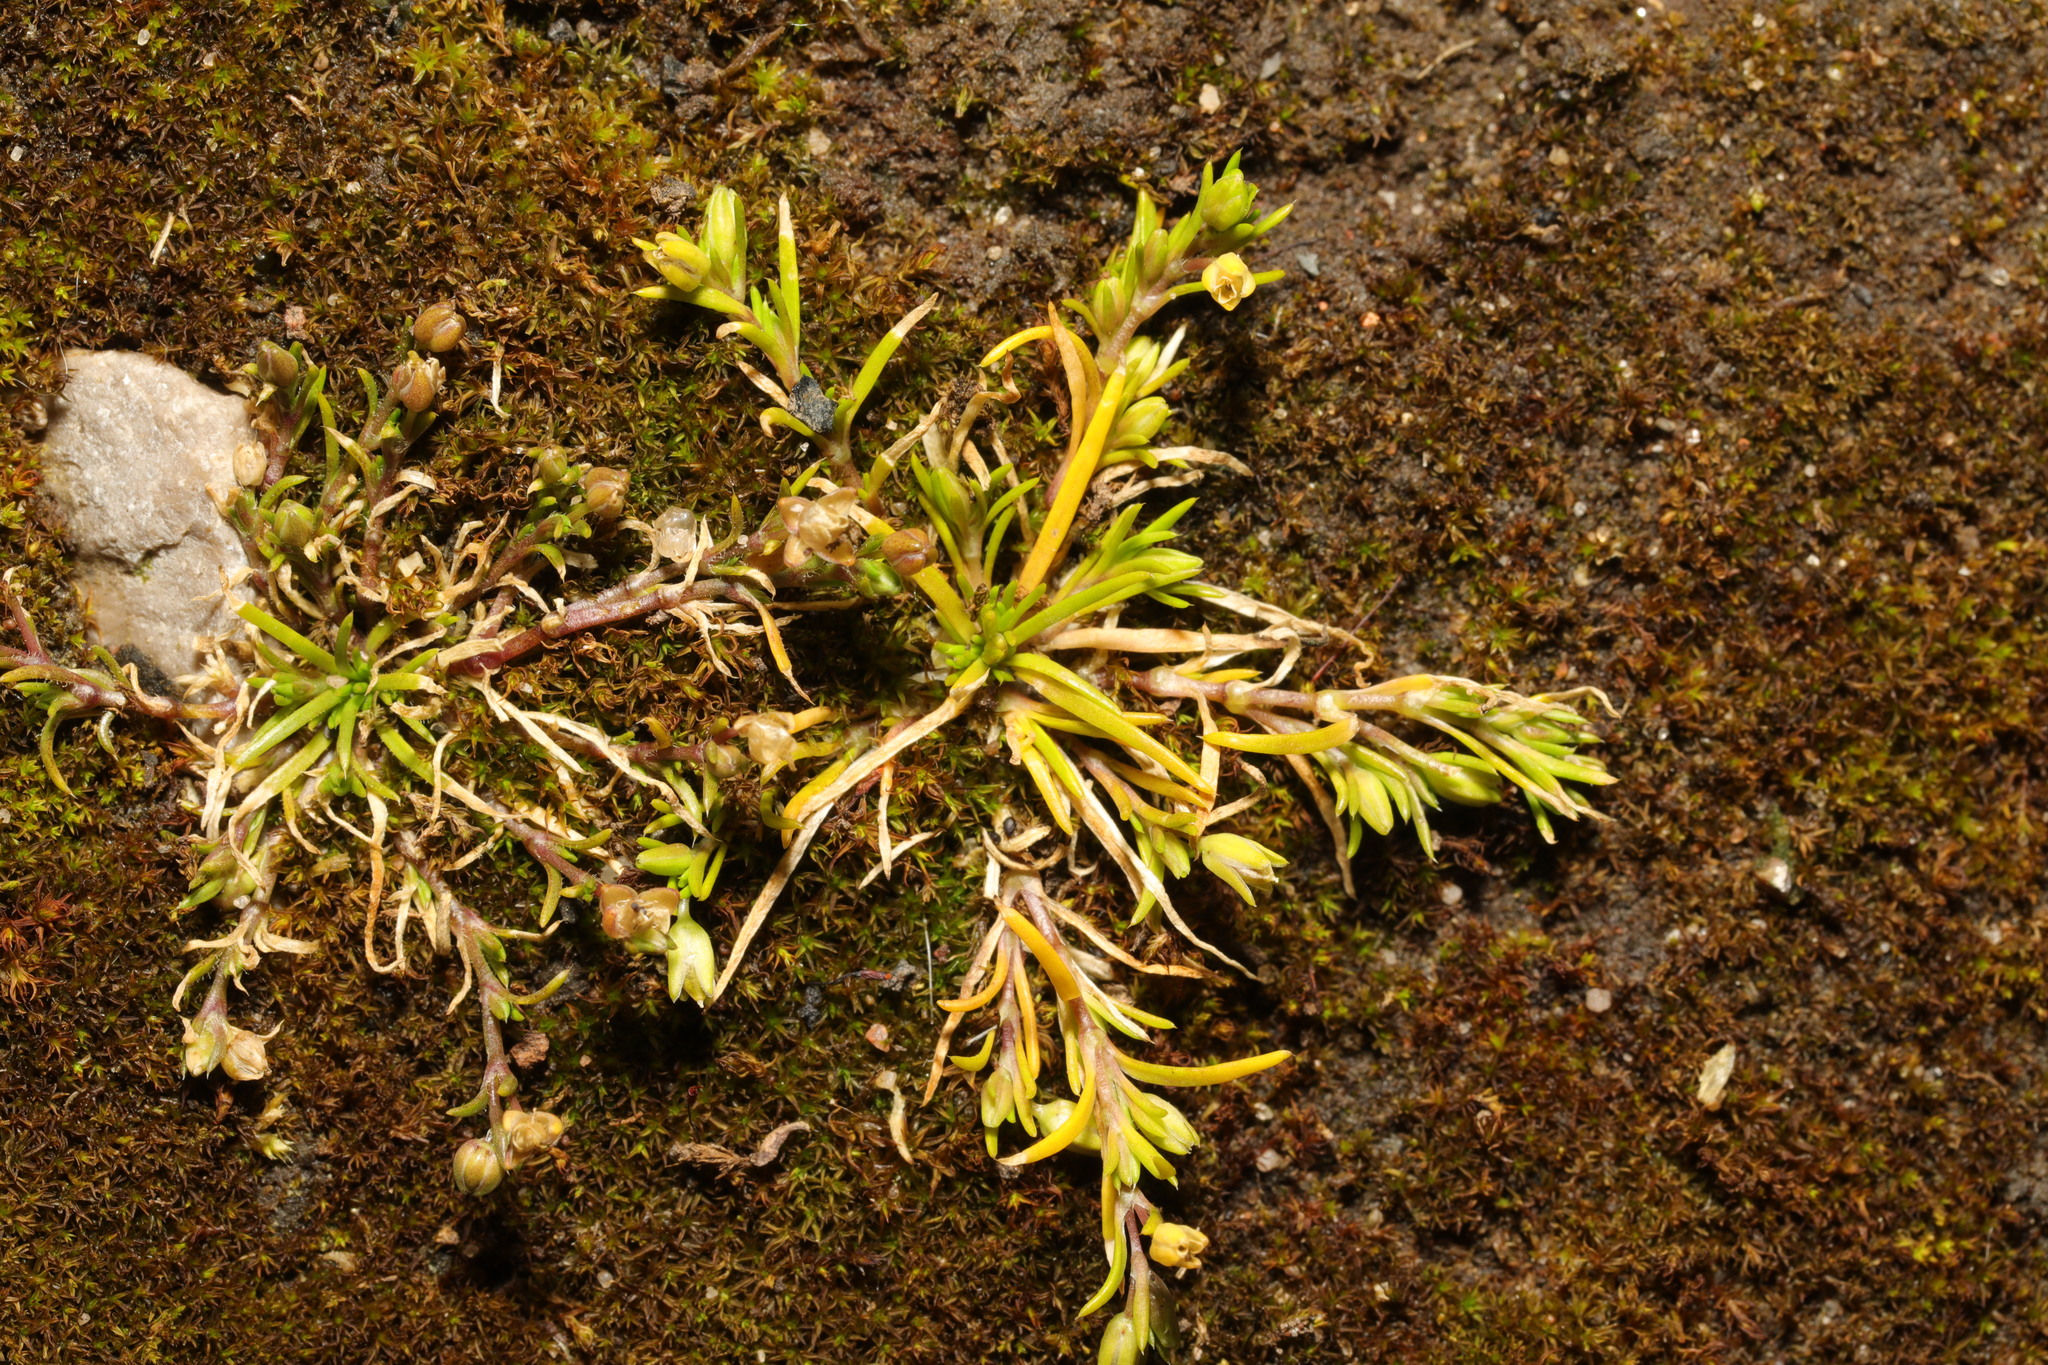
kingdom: Plantae
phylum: Tracheophyta
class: Magnoliopsida
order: Caryophyllales
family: Caryophyllaceae
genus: Sagina
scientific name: Sagina procumbens
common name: Procumbent pearlwort
